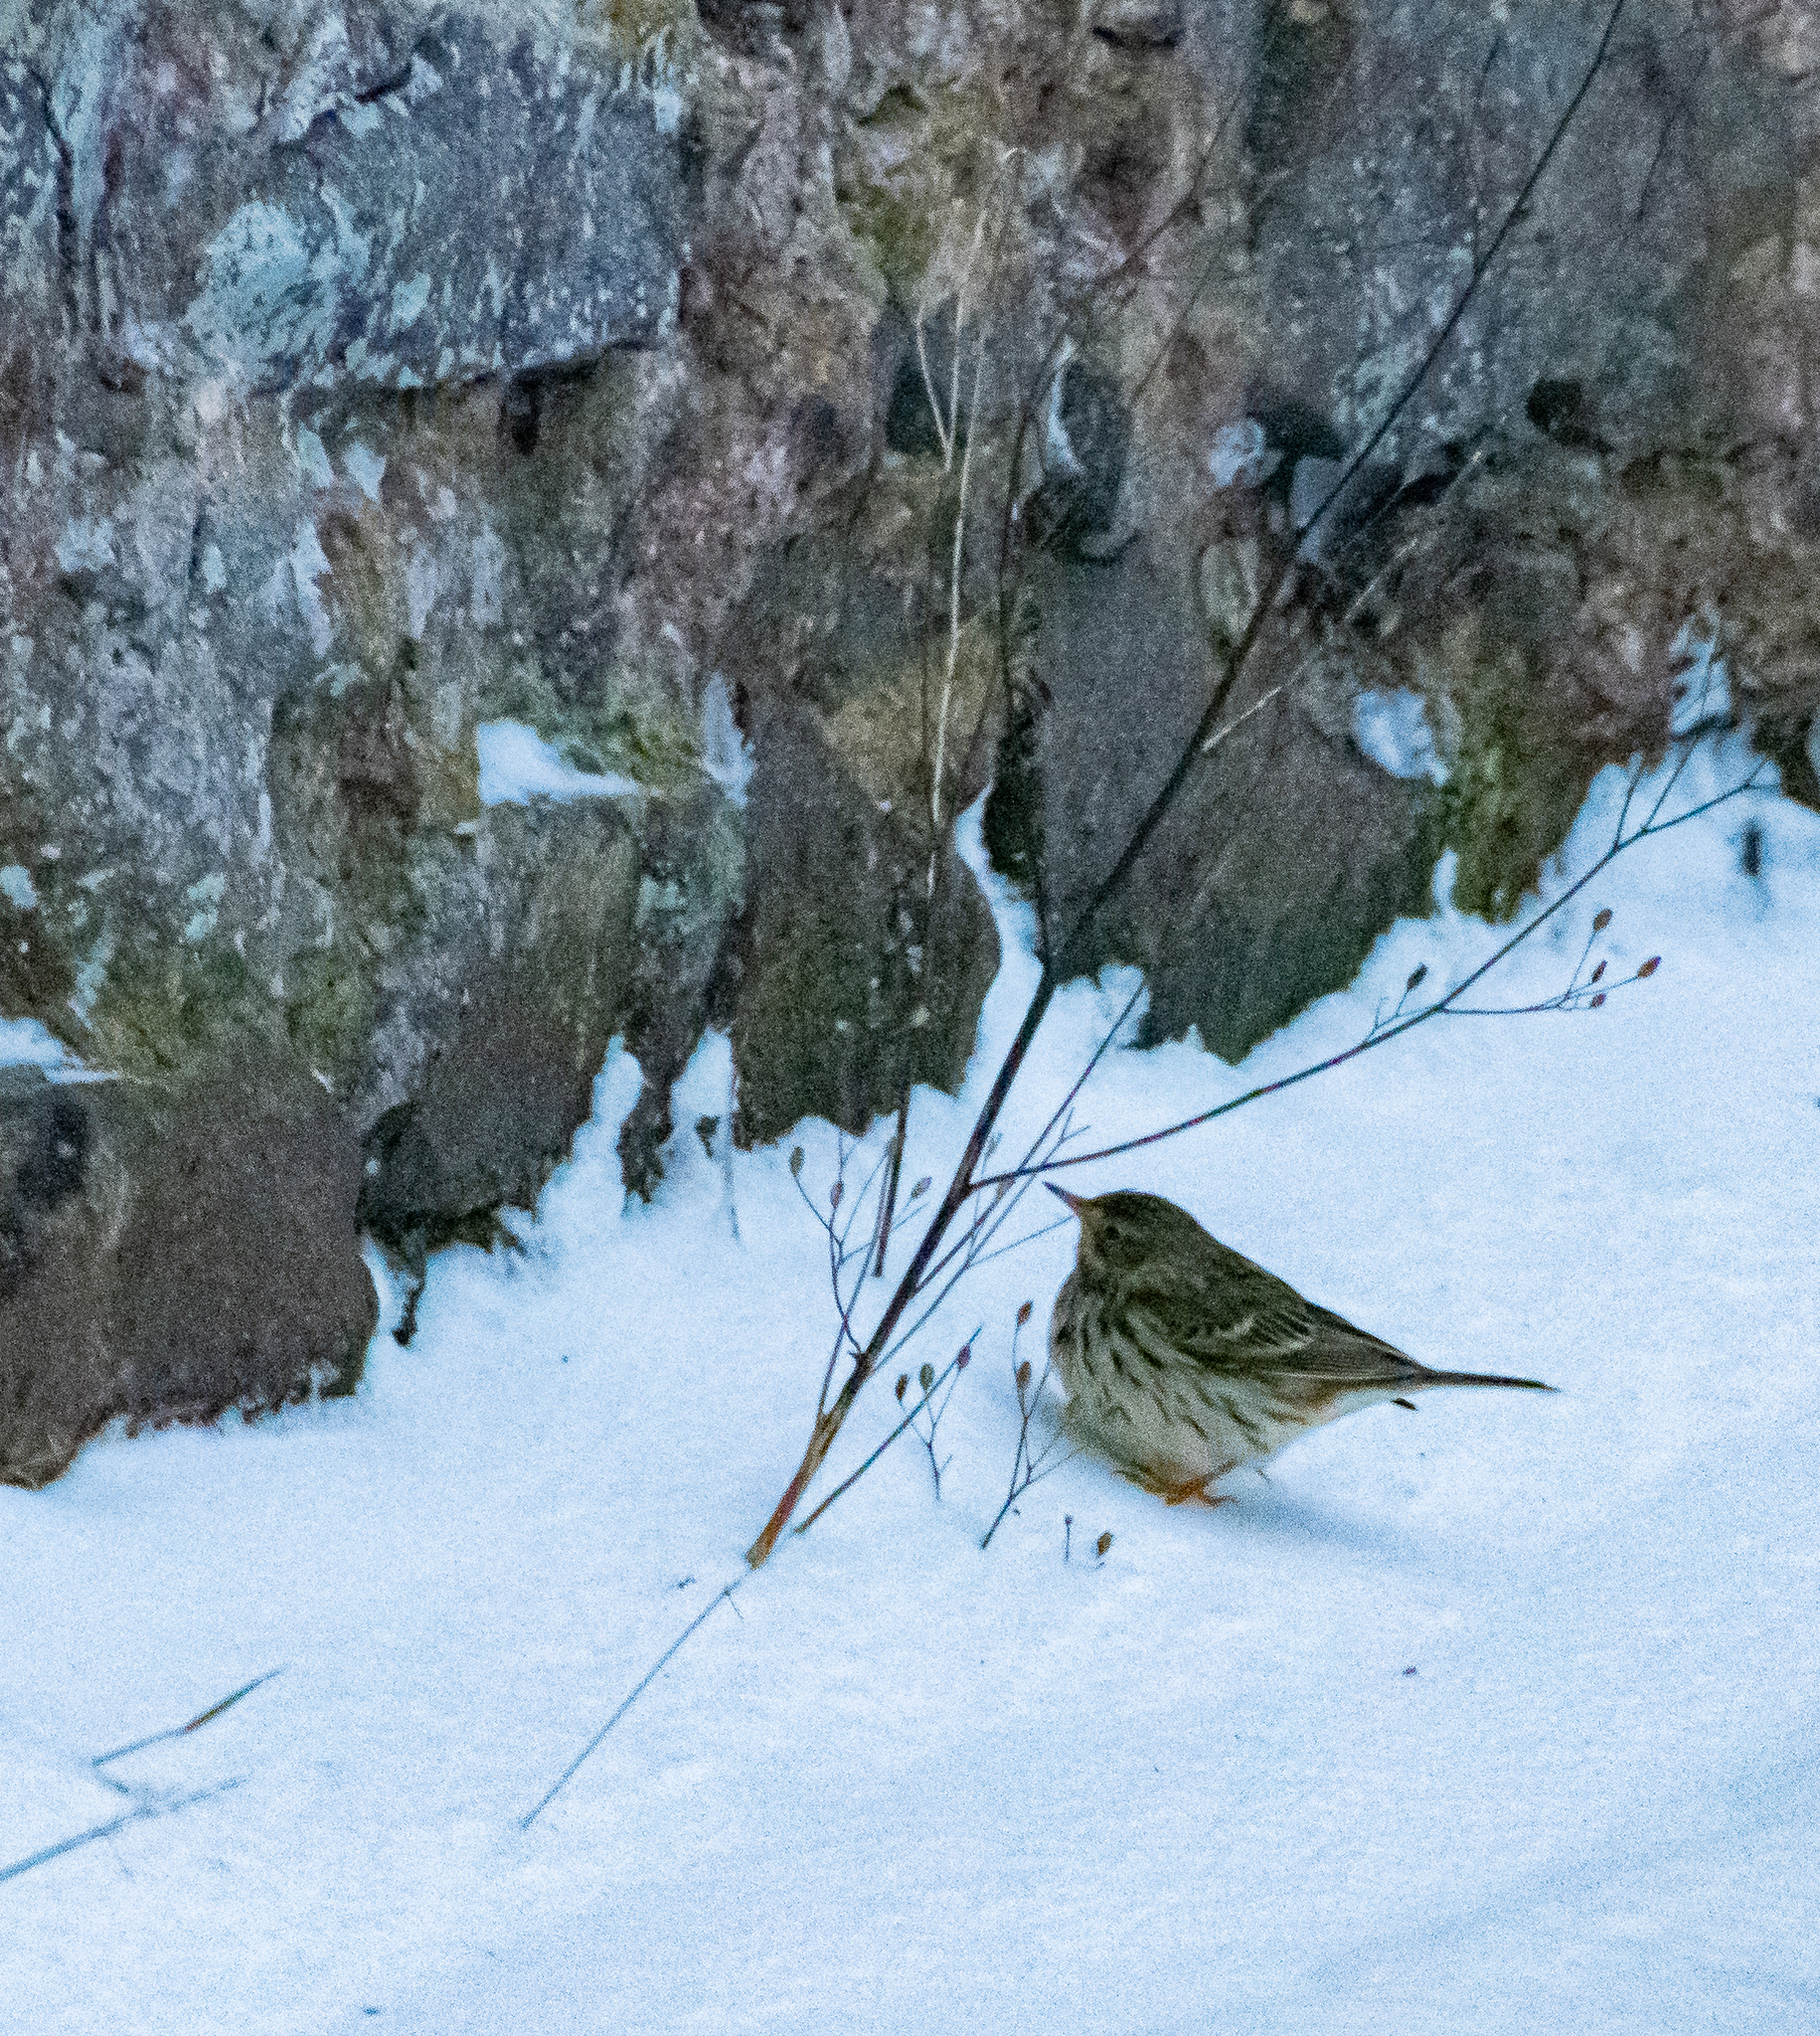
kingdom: Animalia
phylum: Chordata
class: Aves
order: Passeriformes
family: Motacillidae
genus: Anthus
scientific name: Anthus pratensis
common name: Meadow pipit
